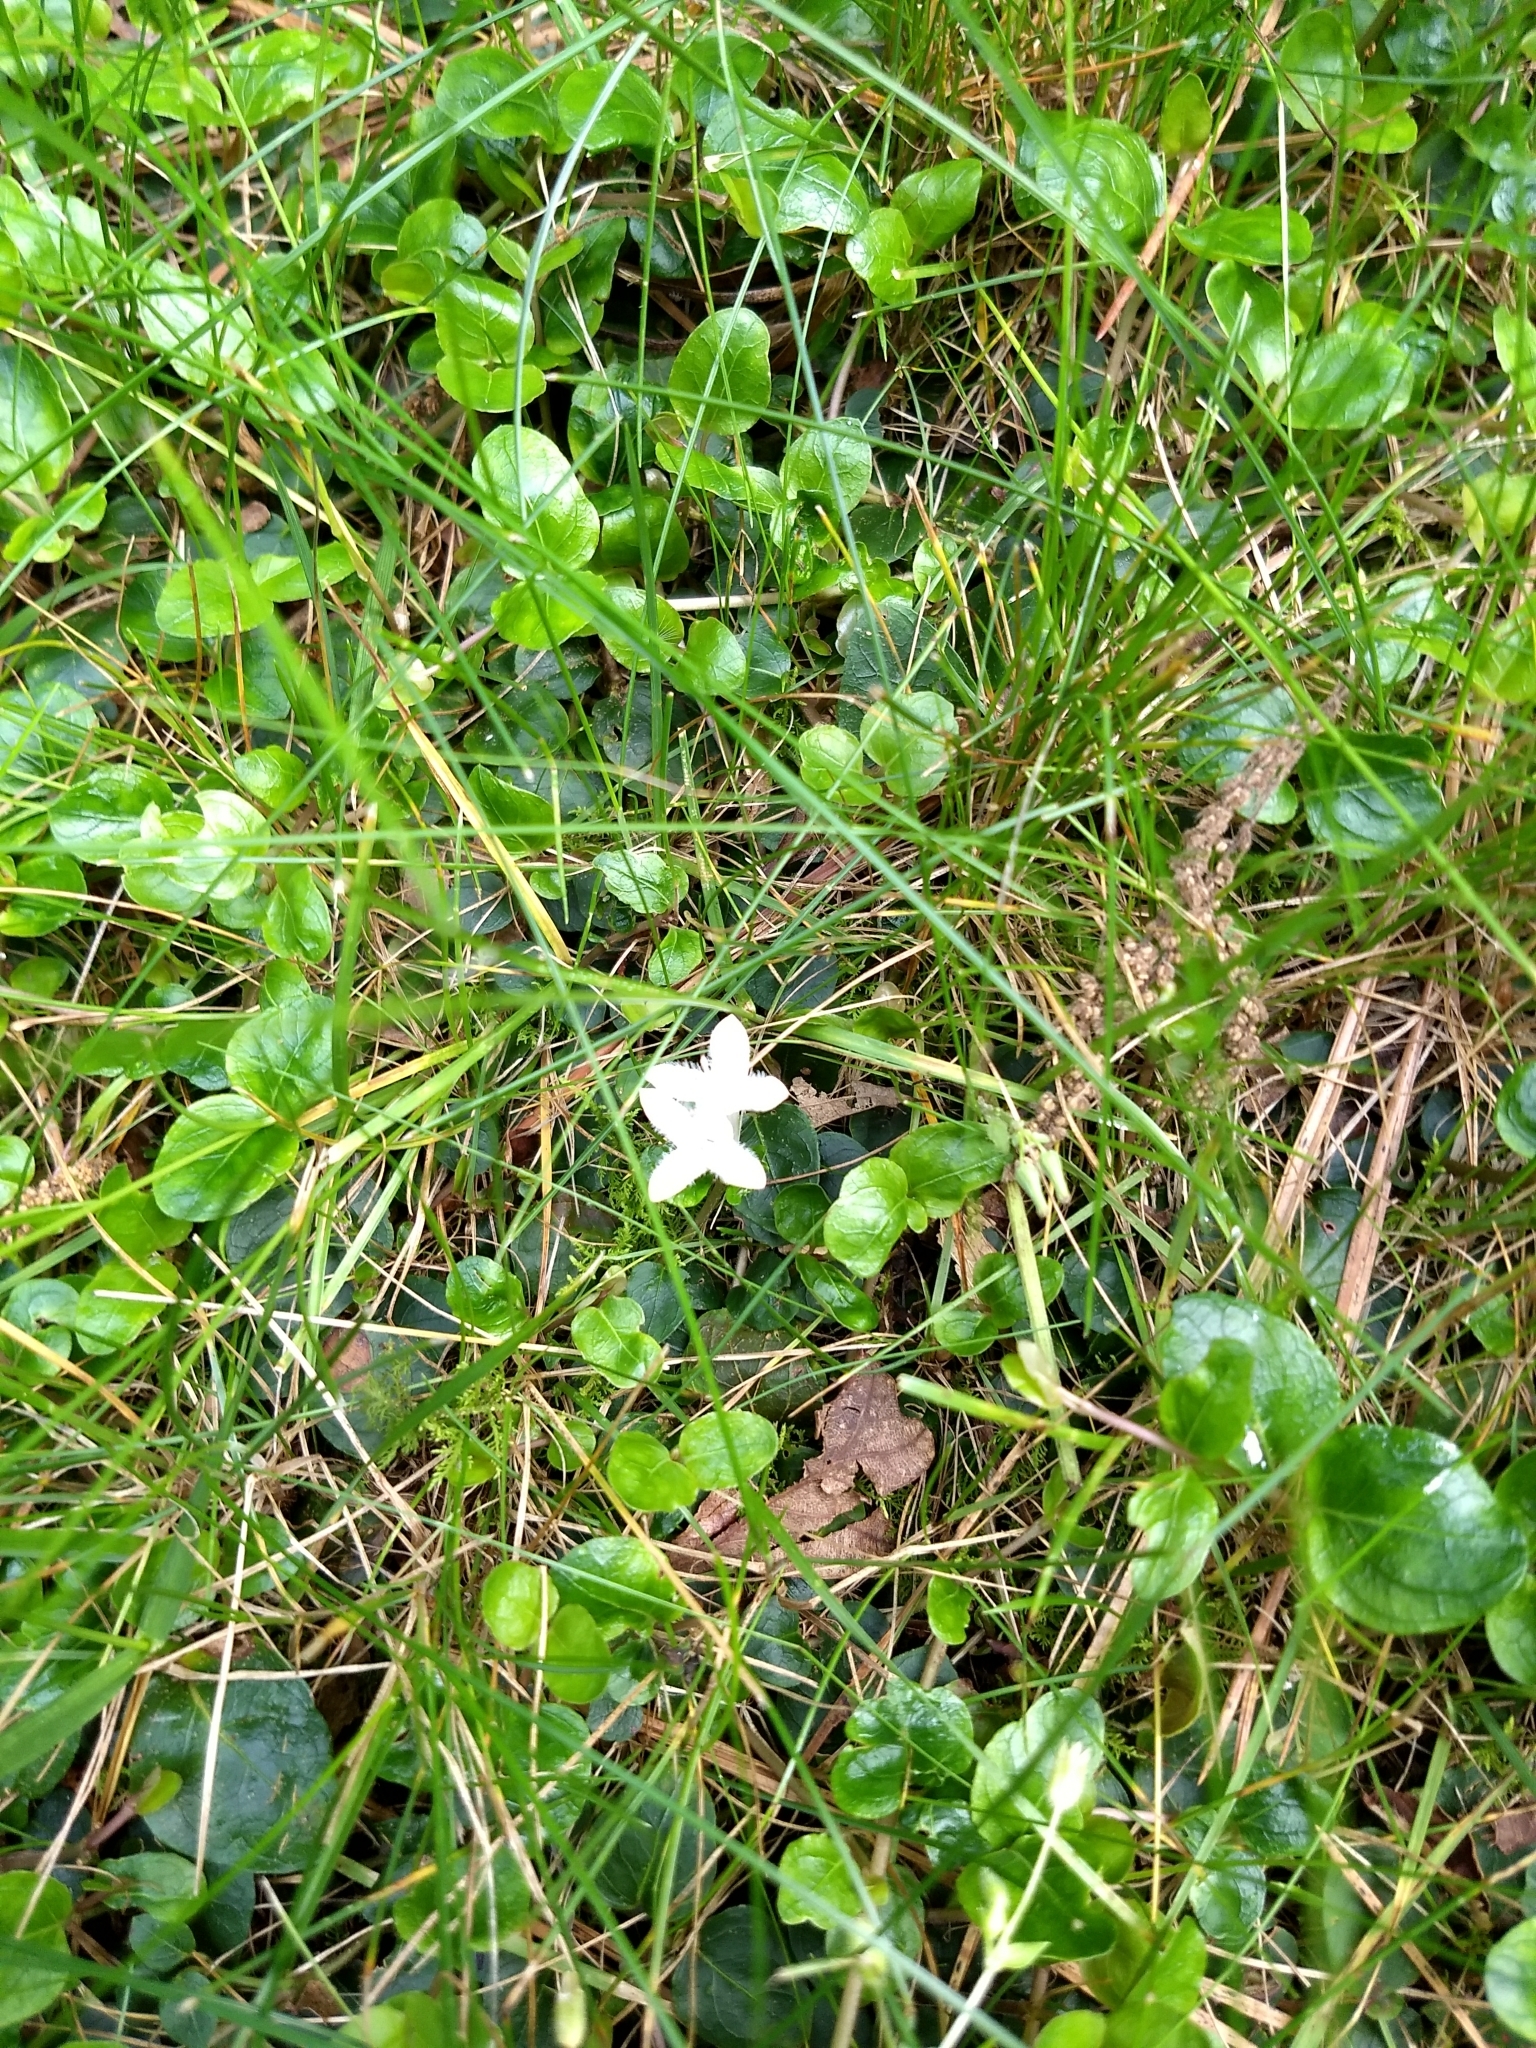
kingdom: Plantae
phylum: Tracheophyta
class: Magnoliopsida
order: Gentianales
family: Rubiaceae
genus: Mitchella
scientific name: Mitchella repens
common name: Partridge-berry
